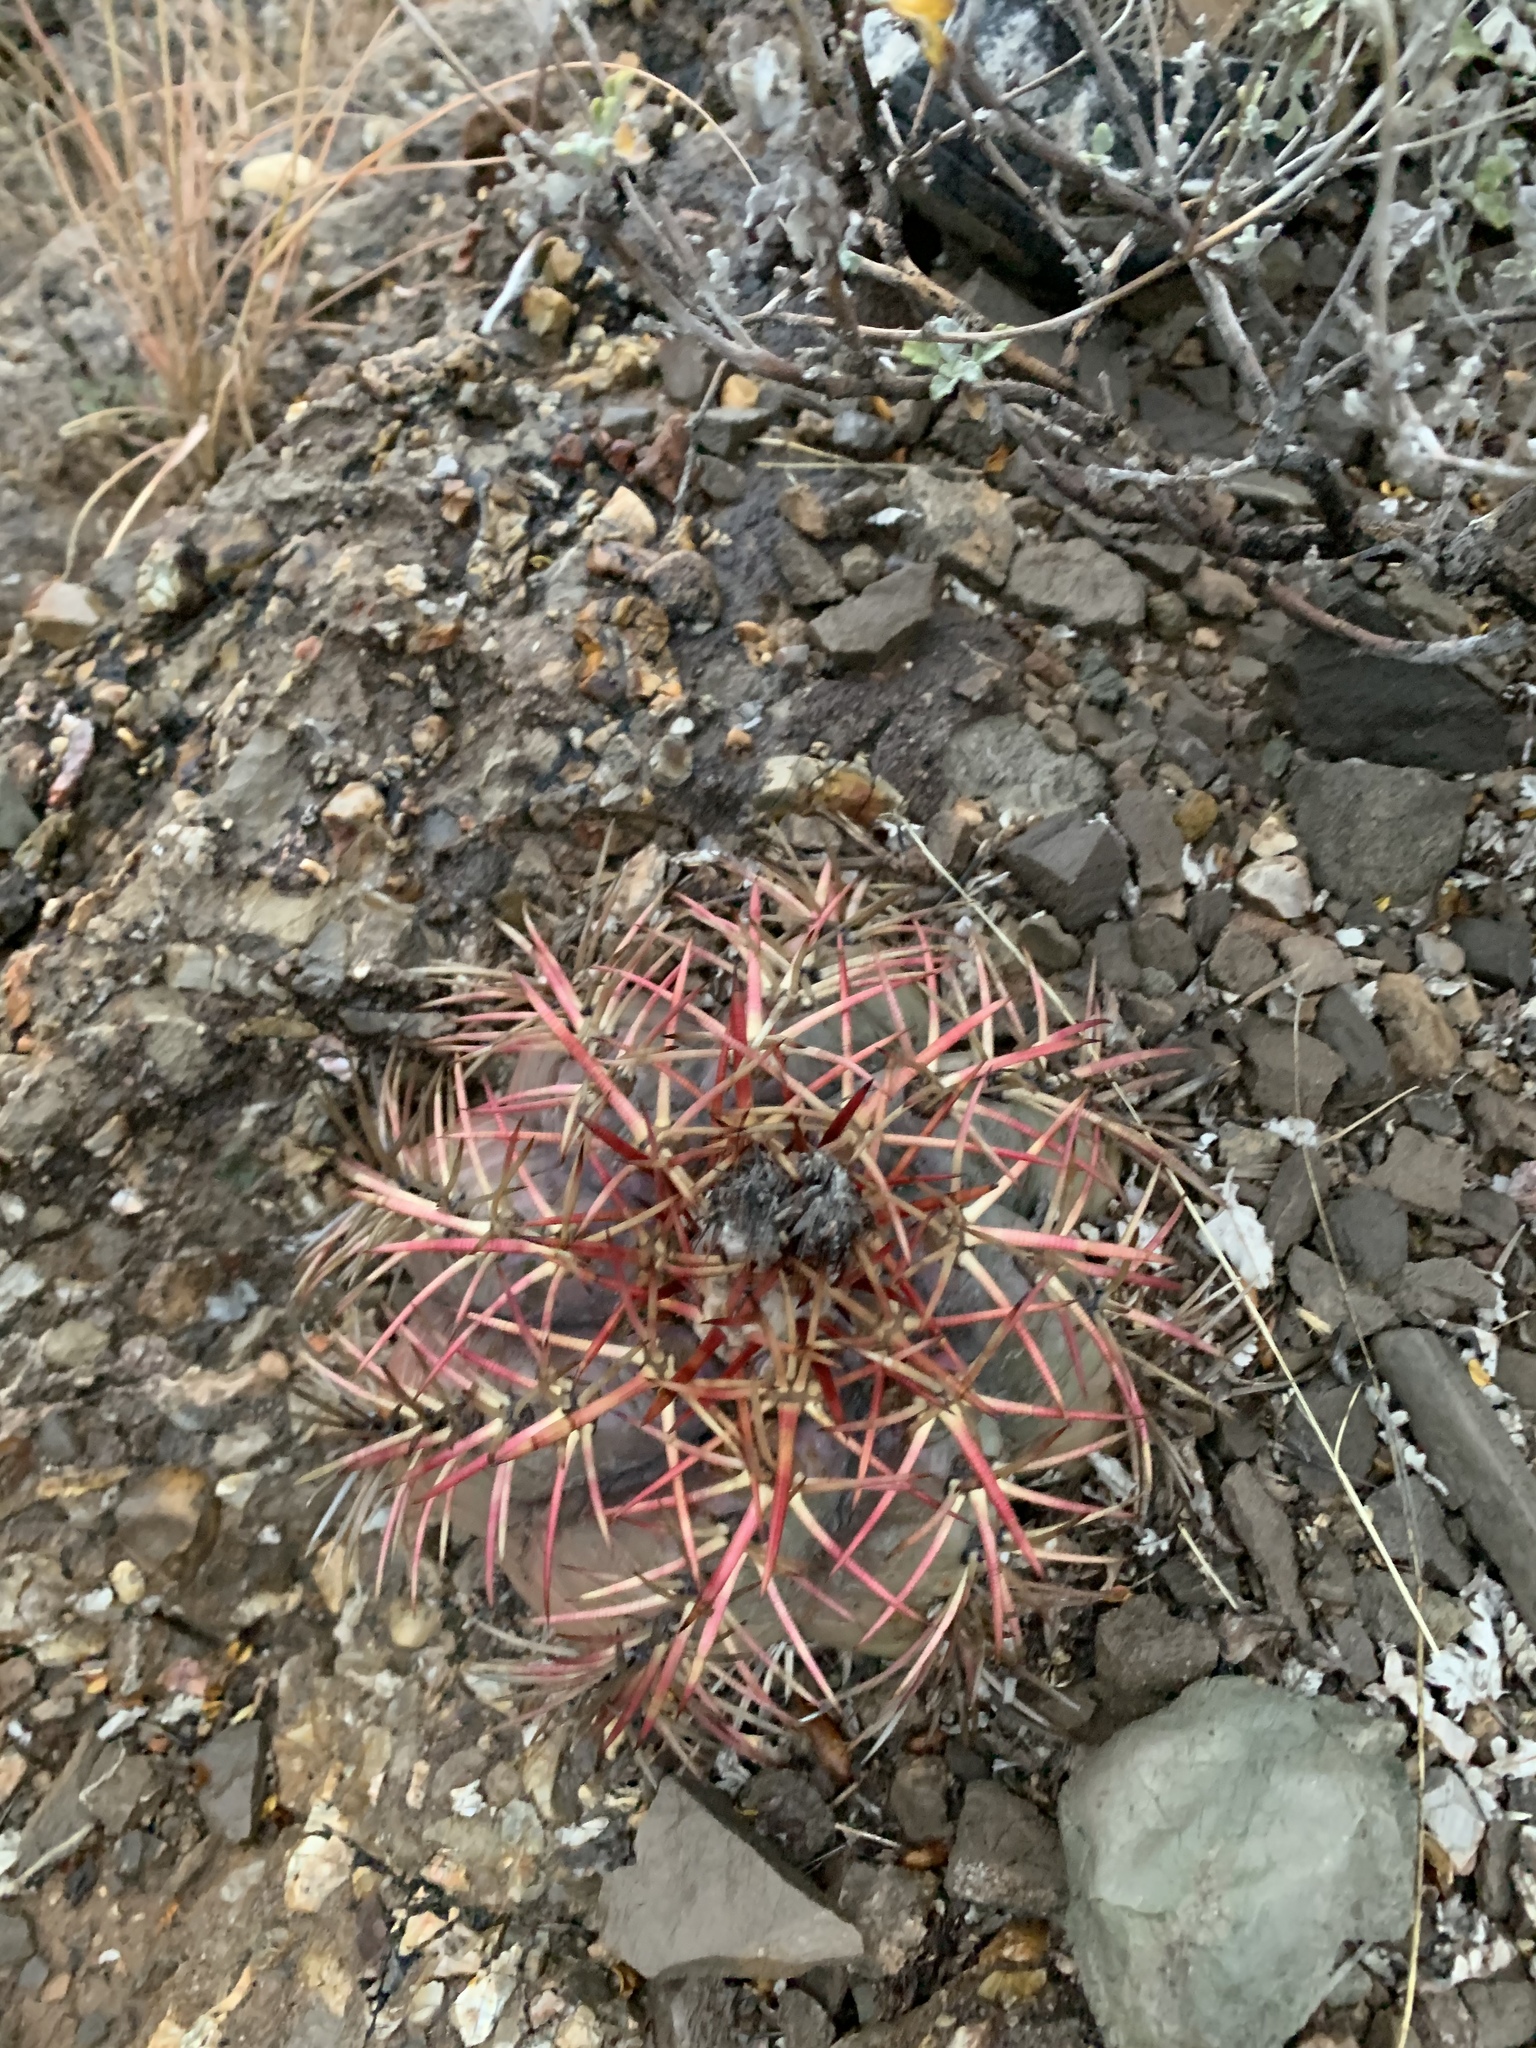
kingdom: Plantae
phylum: Tracheophyta
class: Magnoliopsida
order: Caryophyllales
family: Cactaceae
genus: Echinocactus
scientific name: Echinocactus horizonthalonius
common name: Devilshead
